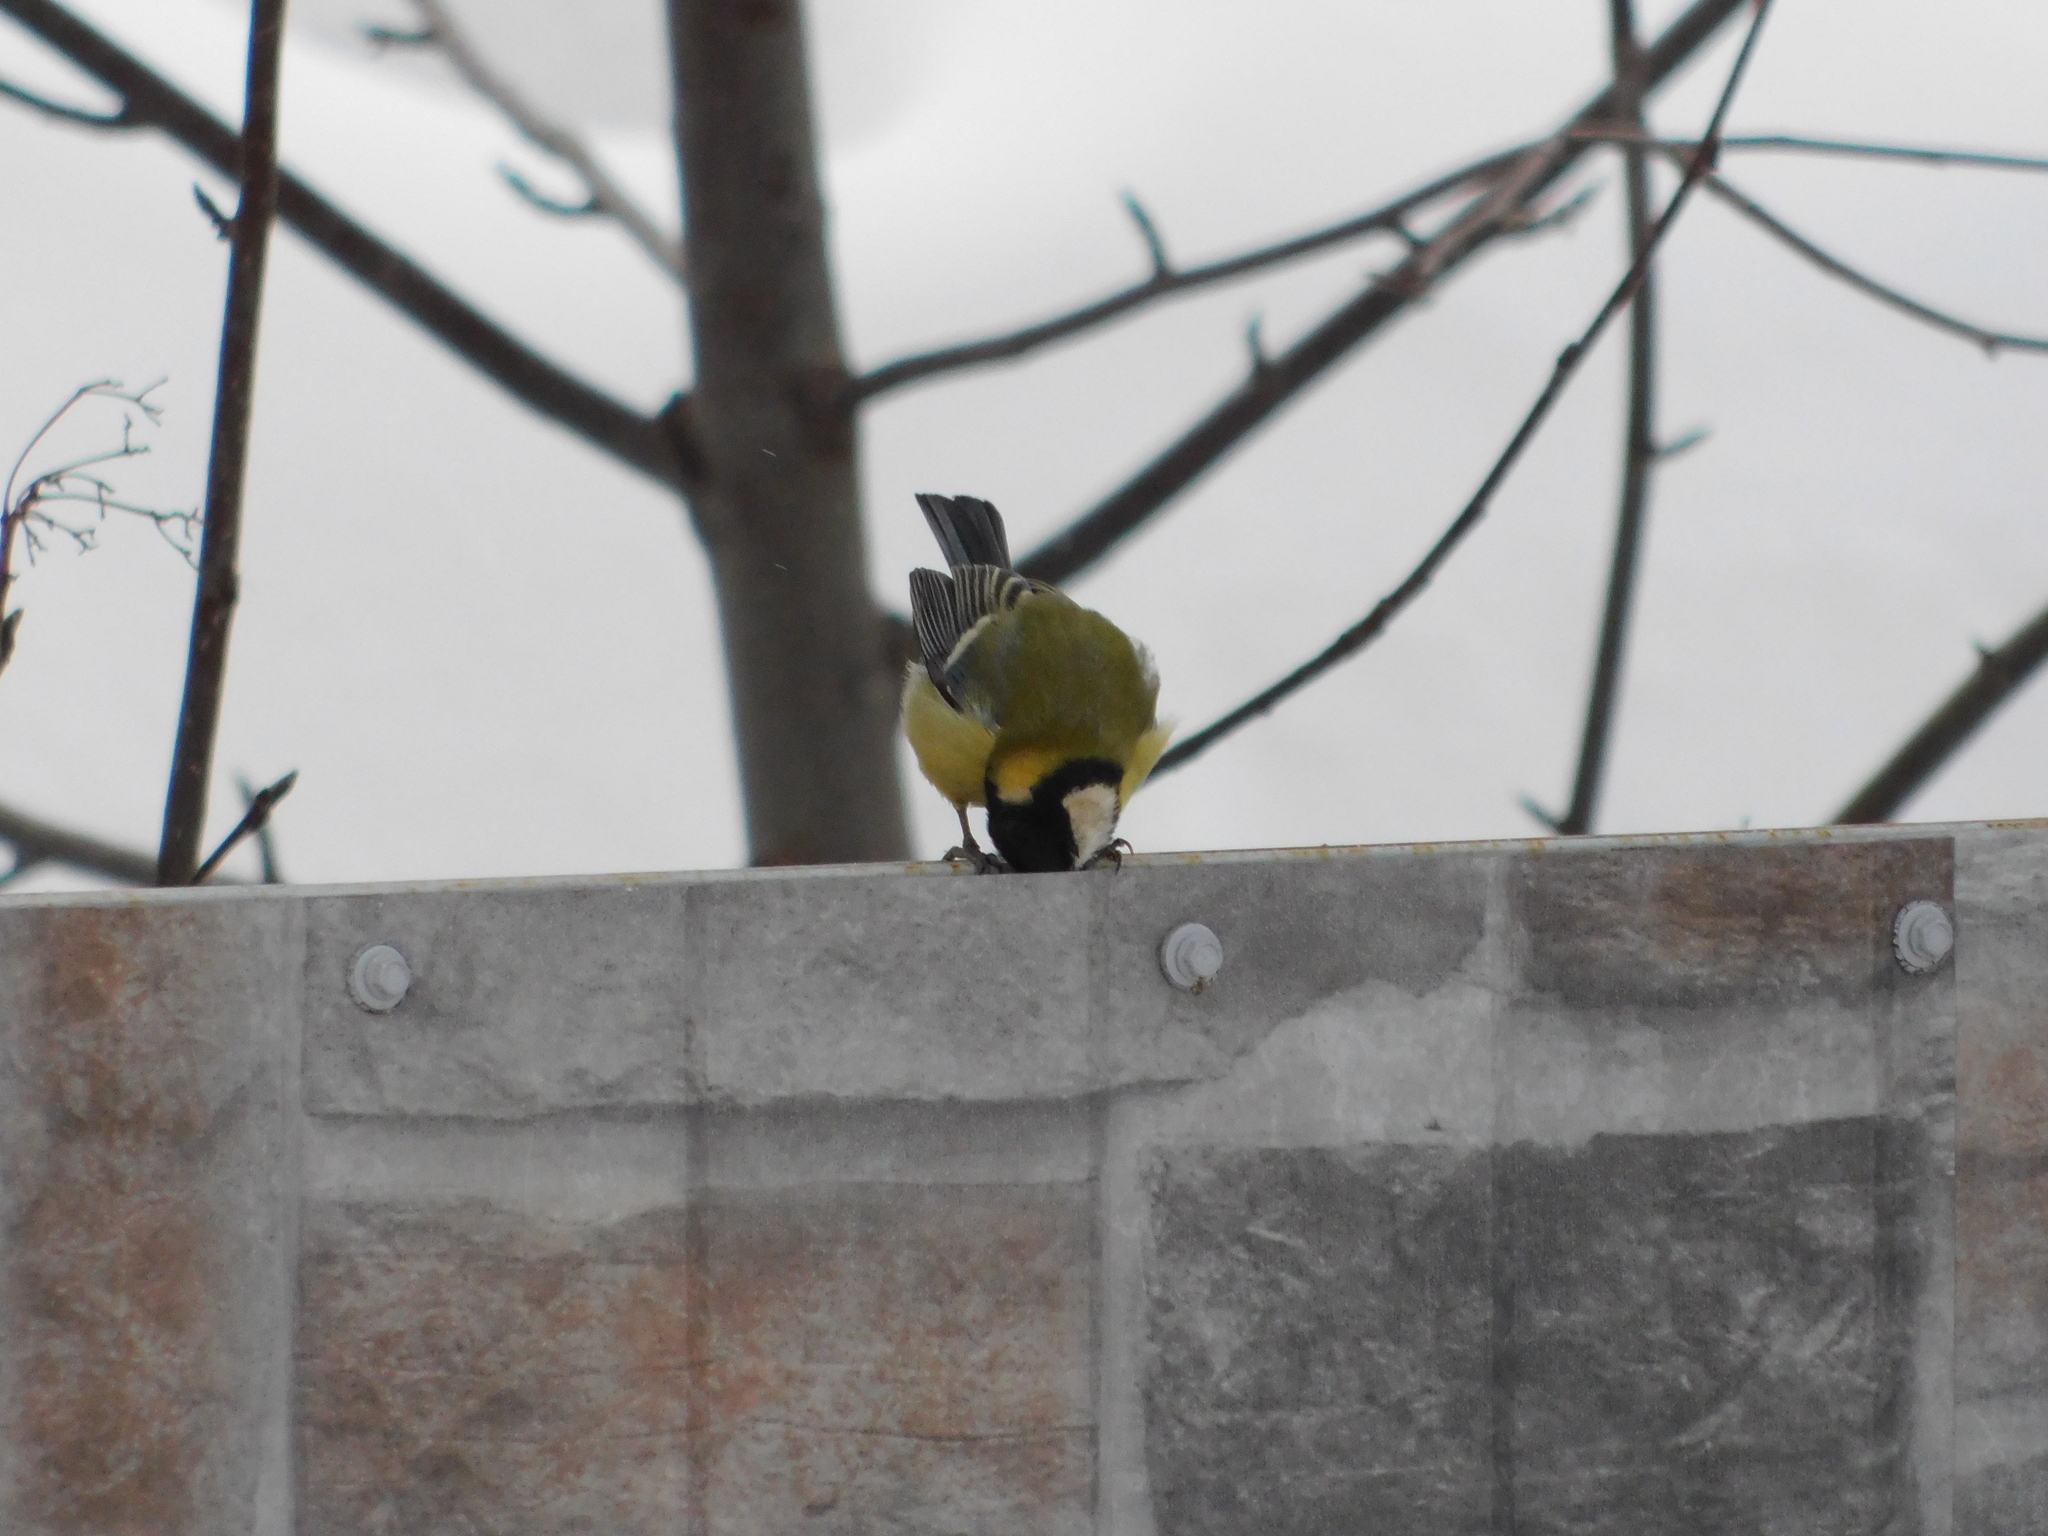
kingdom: Animalia
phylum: Chordata
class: Aves
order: Passeriformes
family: Paridae
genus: Parus
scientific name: Parus major
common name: Great tit
